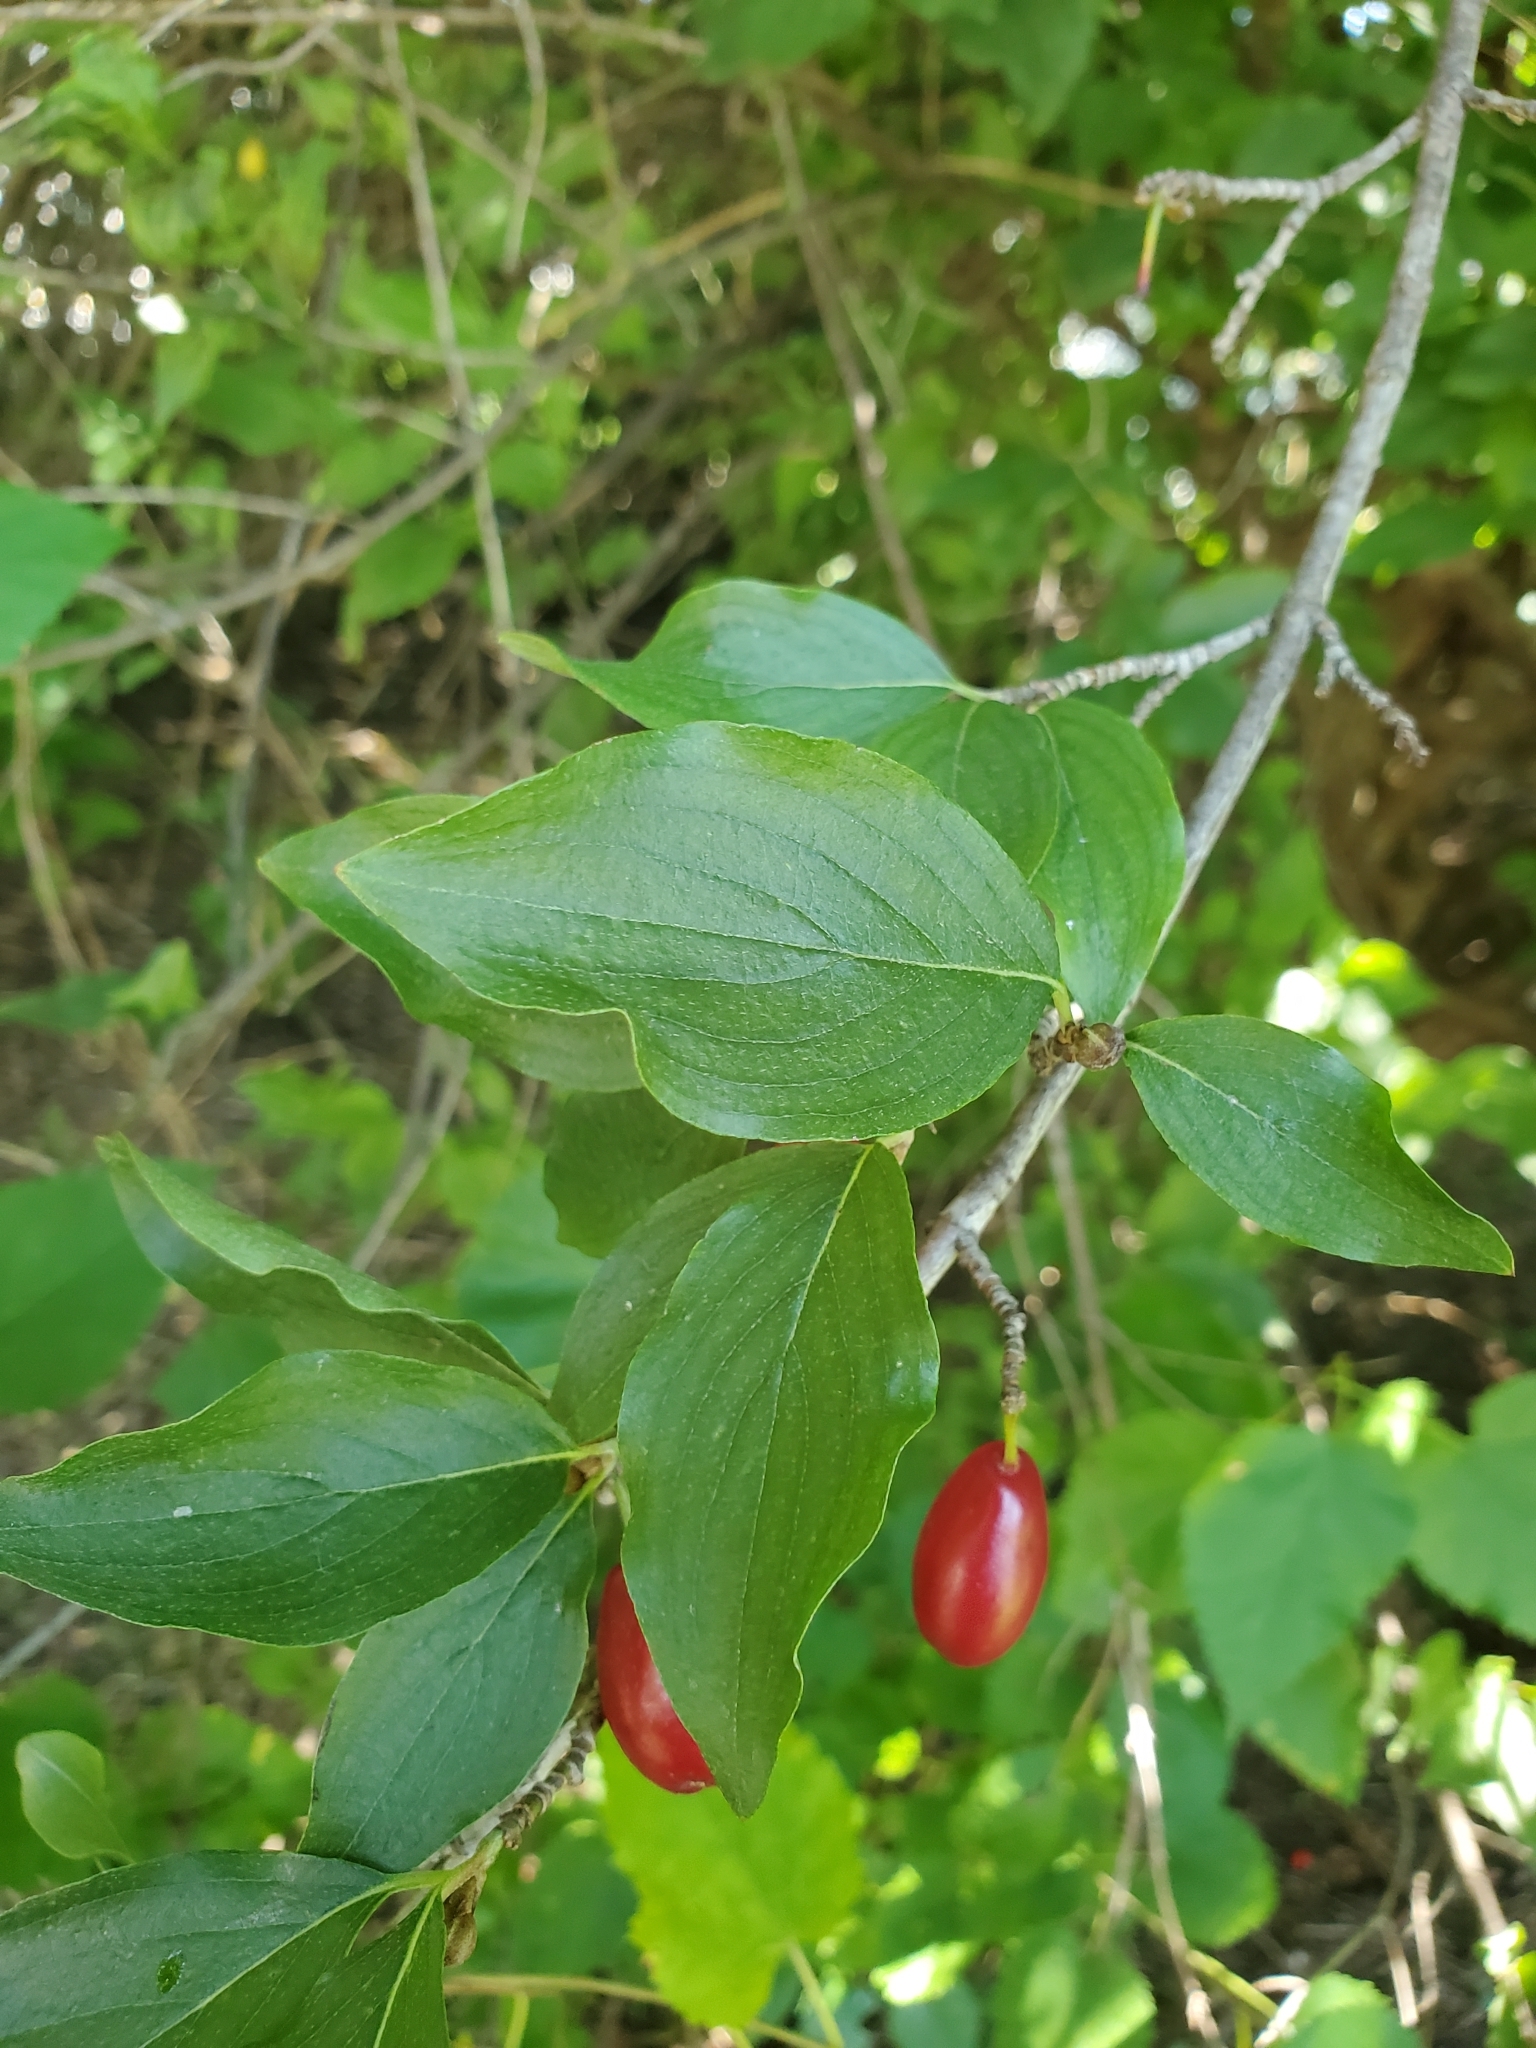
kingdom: Plantae
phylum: Tracheophyta
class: Magnoliopsida
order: Cornales
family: Cornaceae
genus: Cornus
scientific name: Cornus mas
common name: Cornelian-cherry
